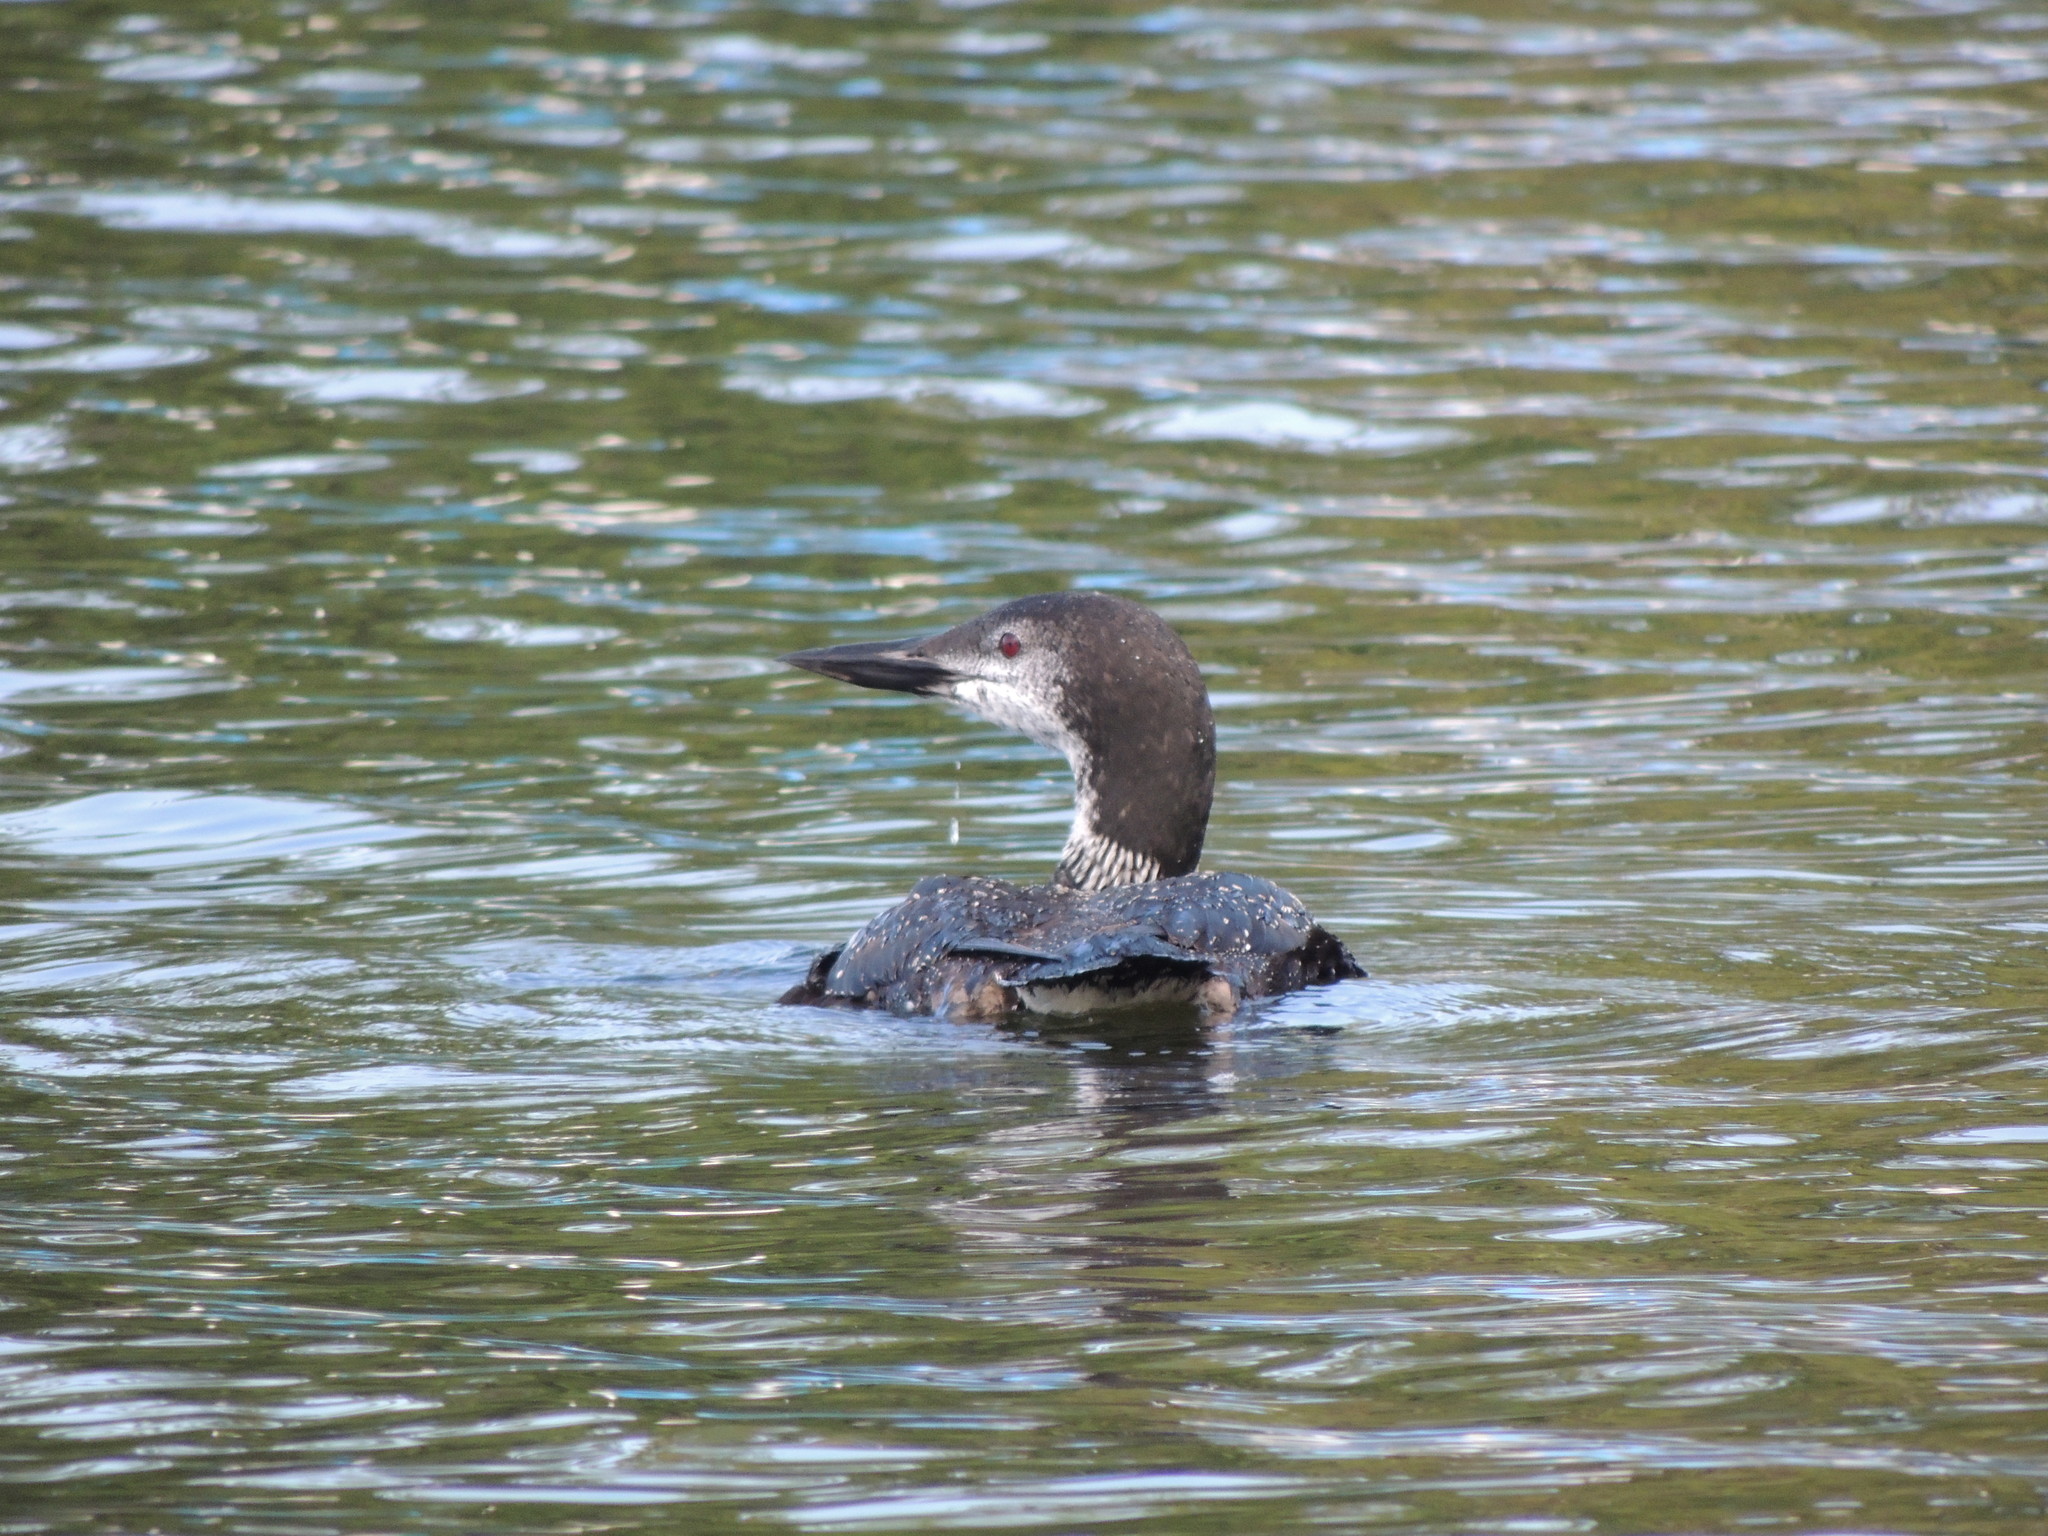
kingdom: Animalia
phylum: Chordata
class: Aves
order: Gaviiformes
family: Gaviidae
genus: Gavia
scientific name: Gavia immer
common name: Common loon
